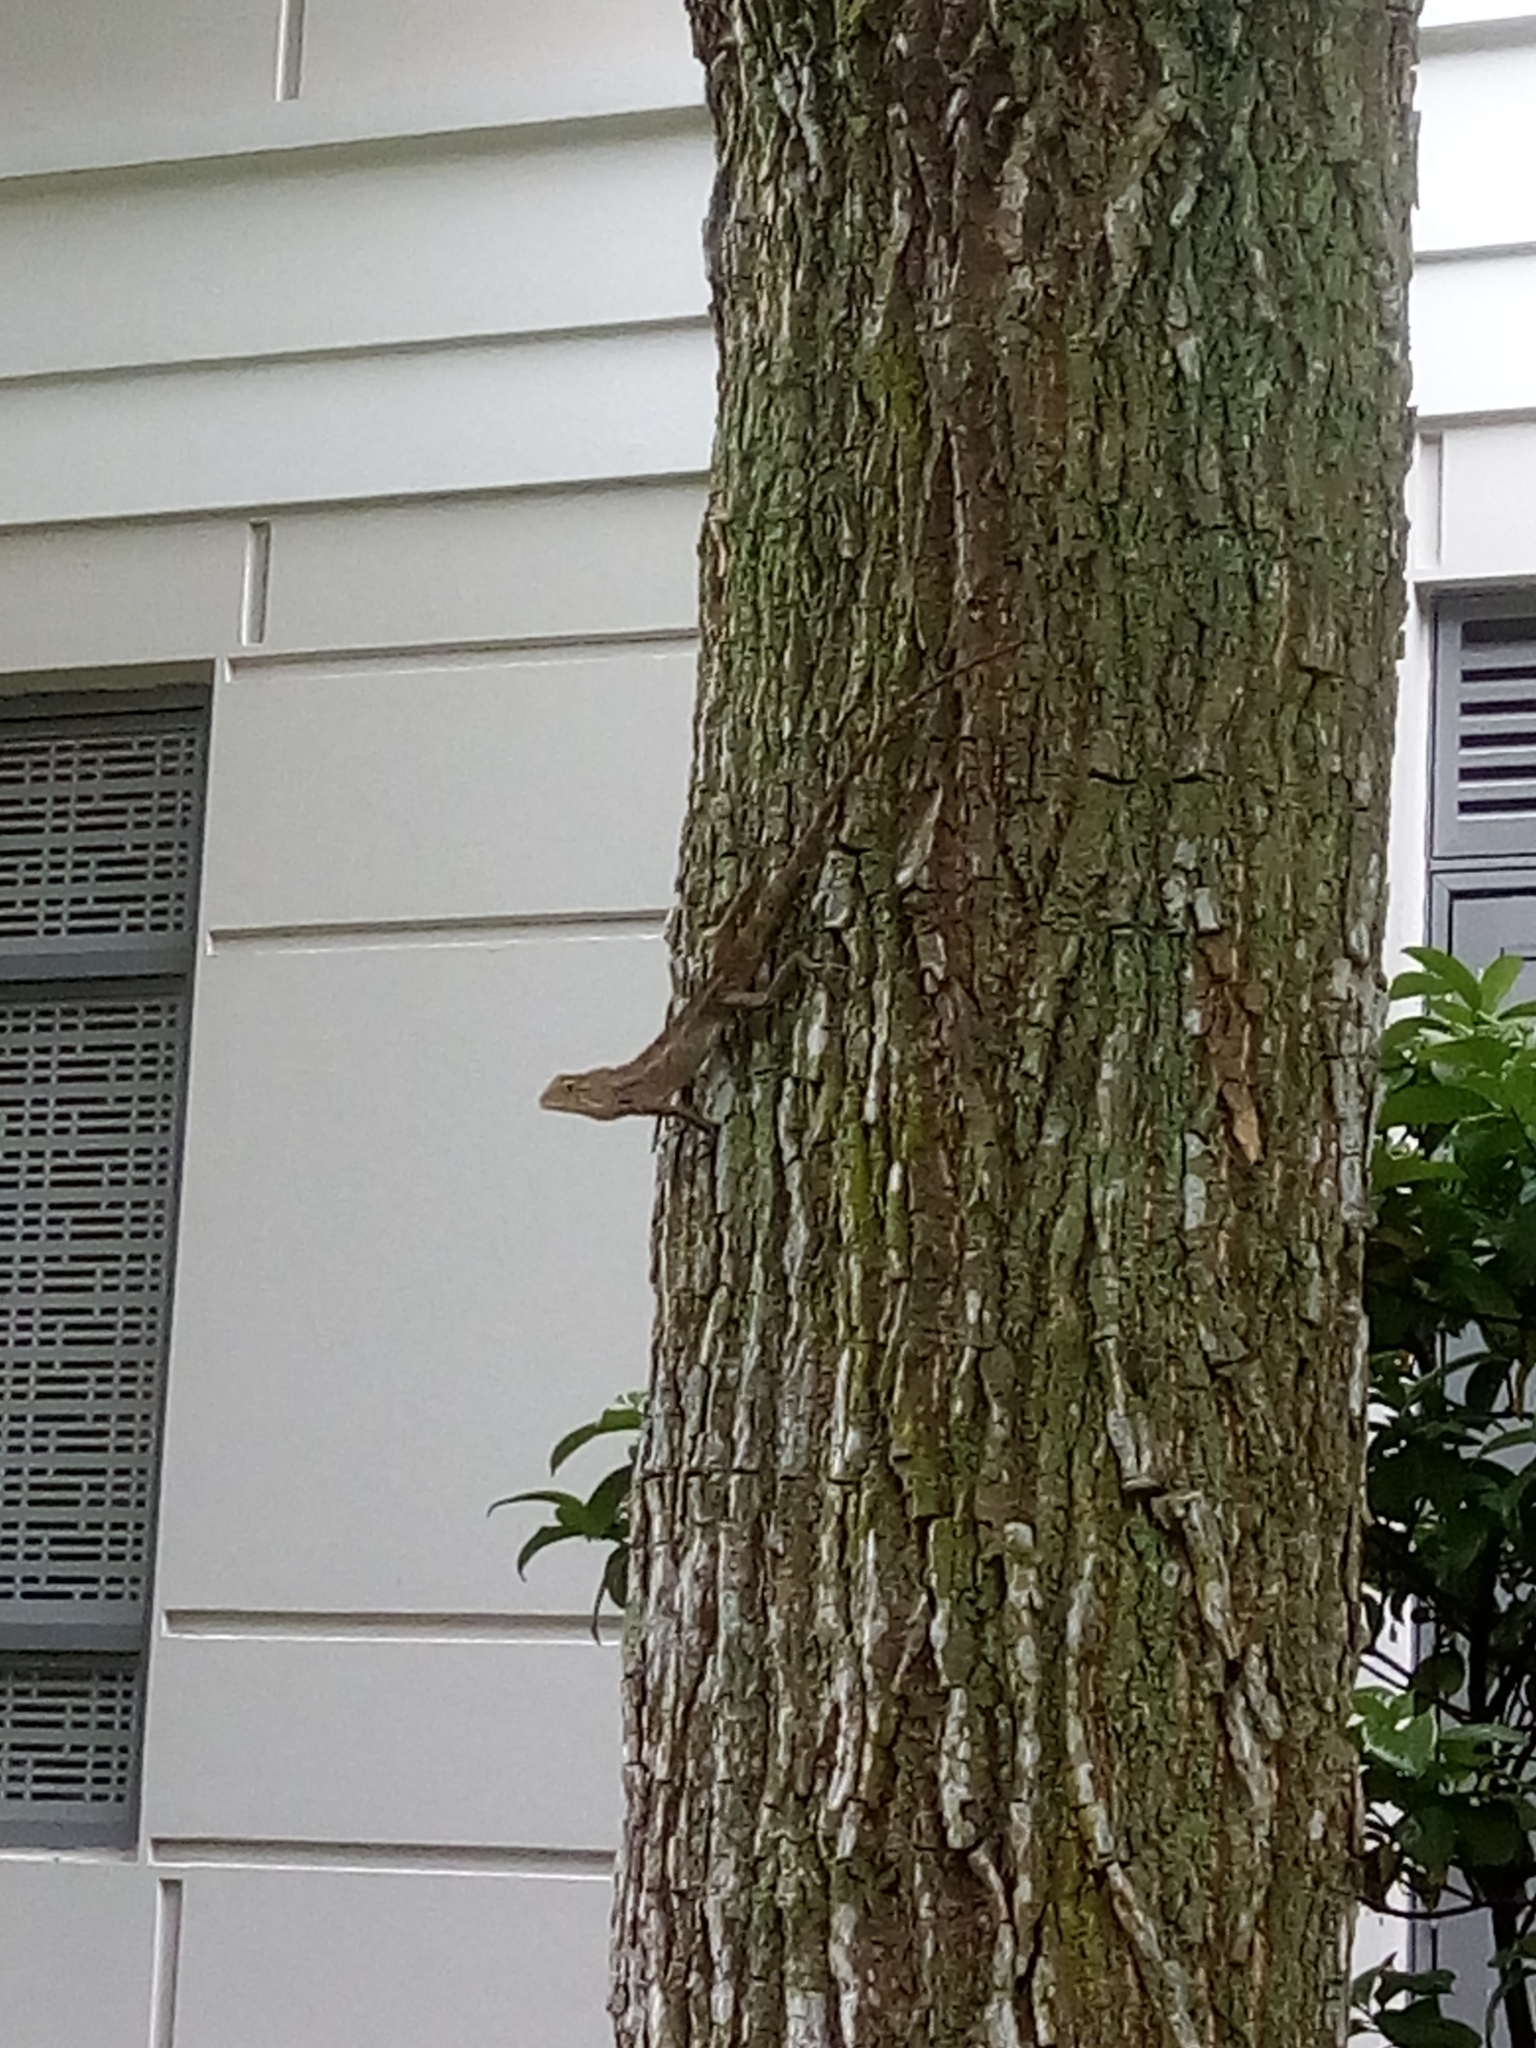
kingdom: Animalia
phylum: Chordata
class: Squamata
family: Agamidae
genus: Calotes
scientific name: Calotes versicolor
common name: Oriental garden lizard
